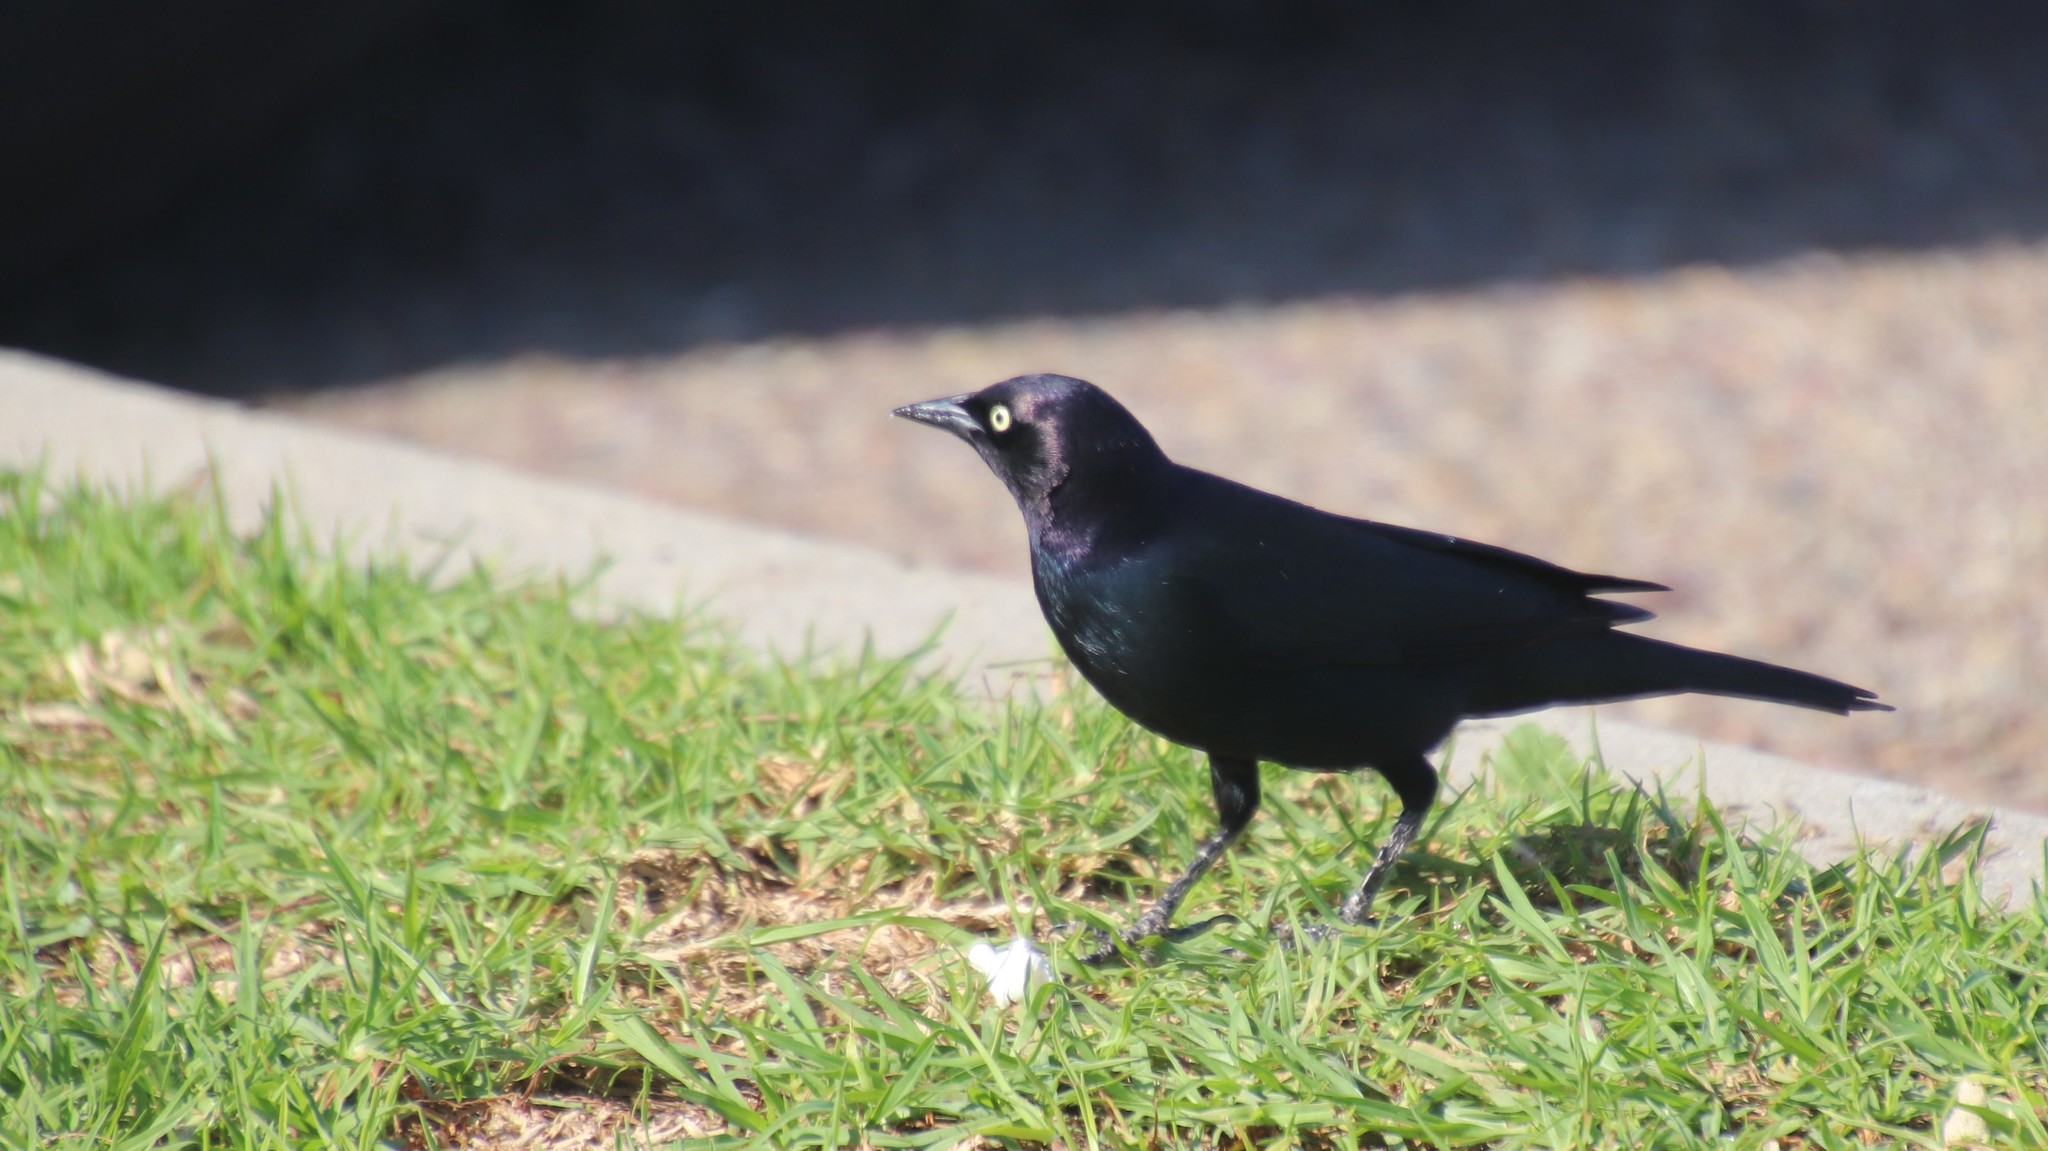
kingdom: Animalia
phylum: Chordata
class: Aves
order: Passeriformes
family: Icteridae
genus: Euphagus
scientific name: Euphagus cyanocephalus
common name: Brewer's blackbird
